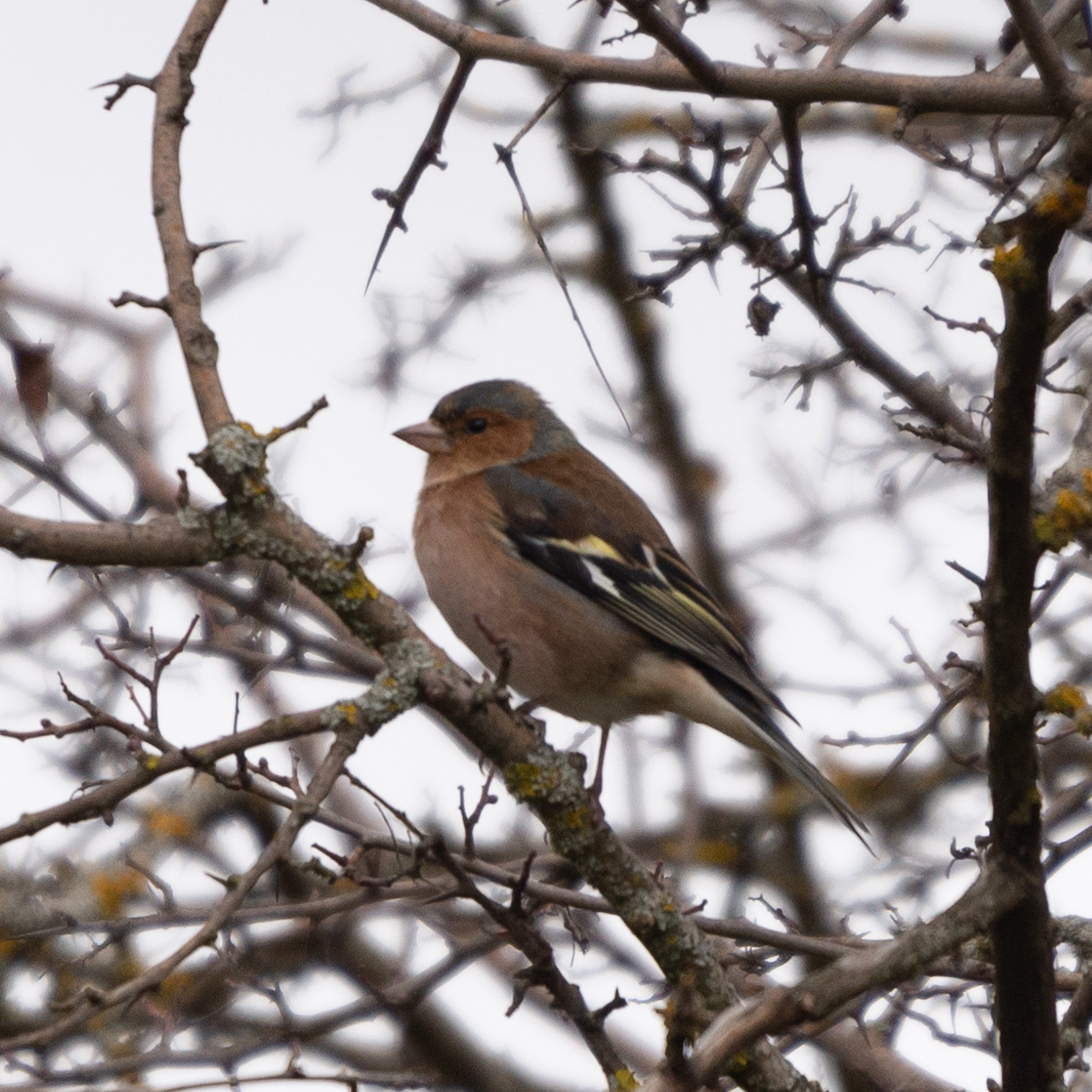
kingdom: Animalia
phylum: Chordata
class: Aves
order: Passeriformes
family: Fringillidae
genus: Fringilla
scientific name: Fringilla coelebs
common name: Common chaffinch
